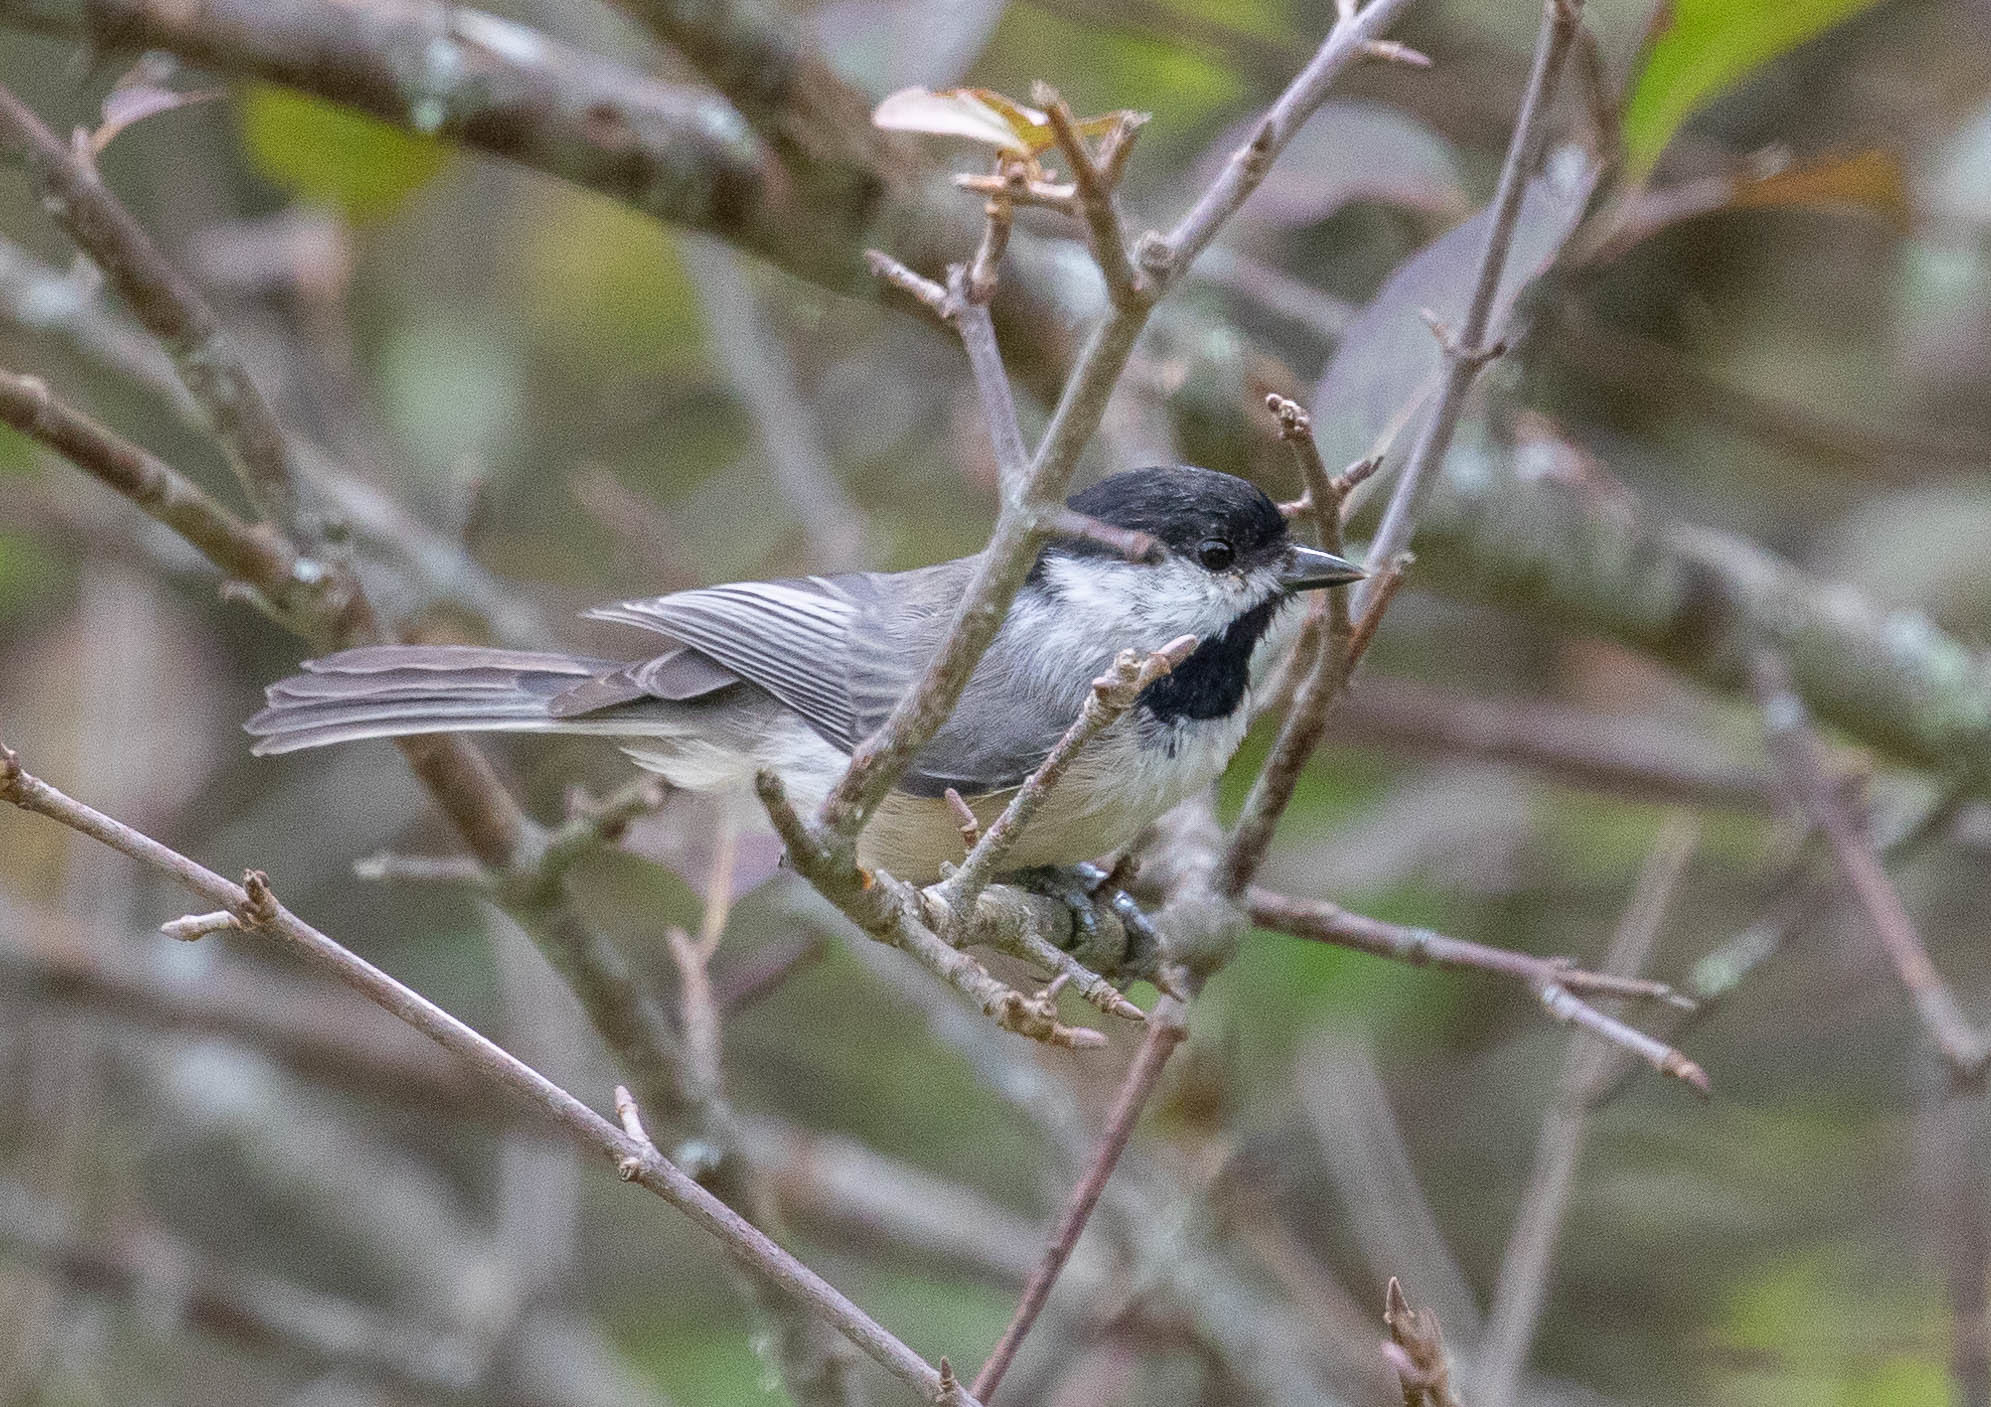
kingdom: Animalia
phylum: Chordata
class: Aves
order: Passeriformes
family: Paridae
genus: Poecile
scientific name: Poecile carolinensis
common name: Carolina chickadee
